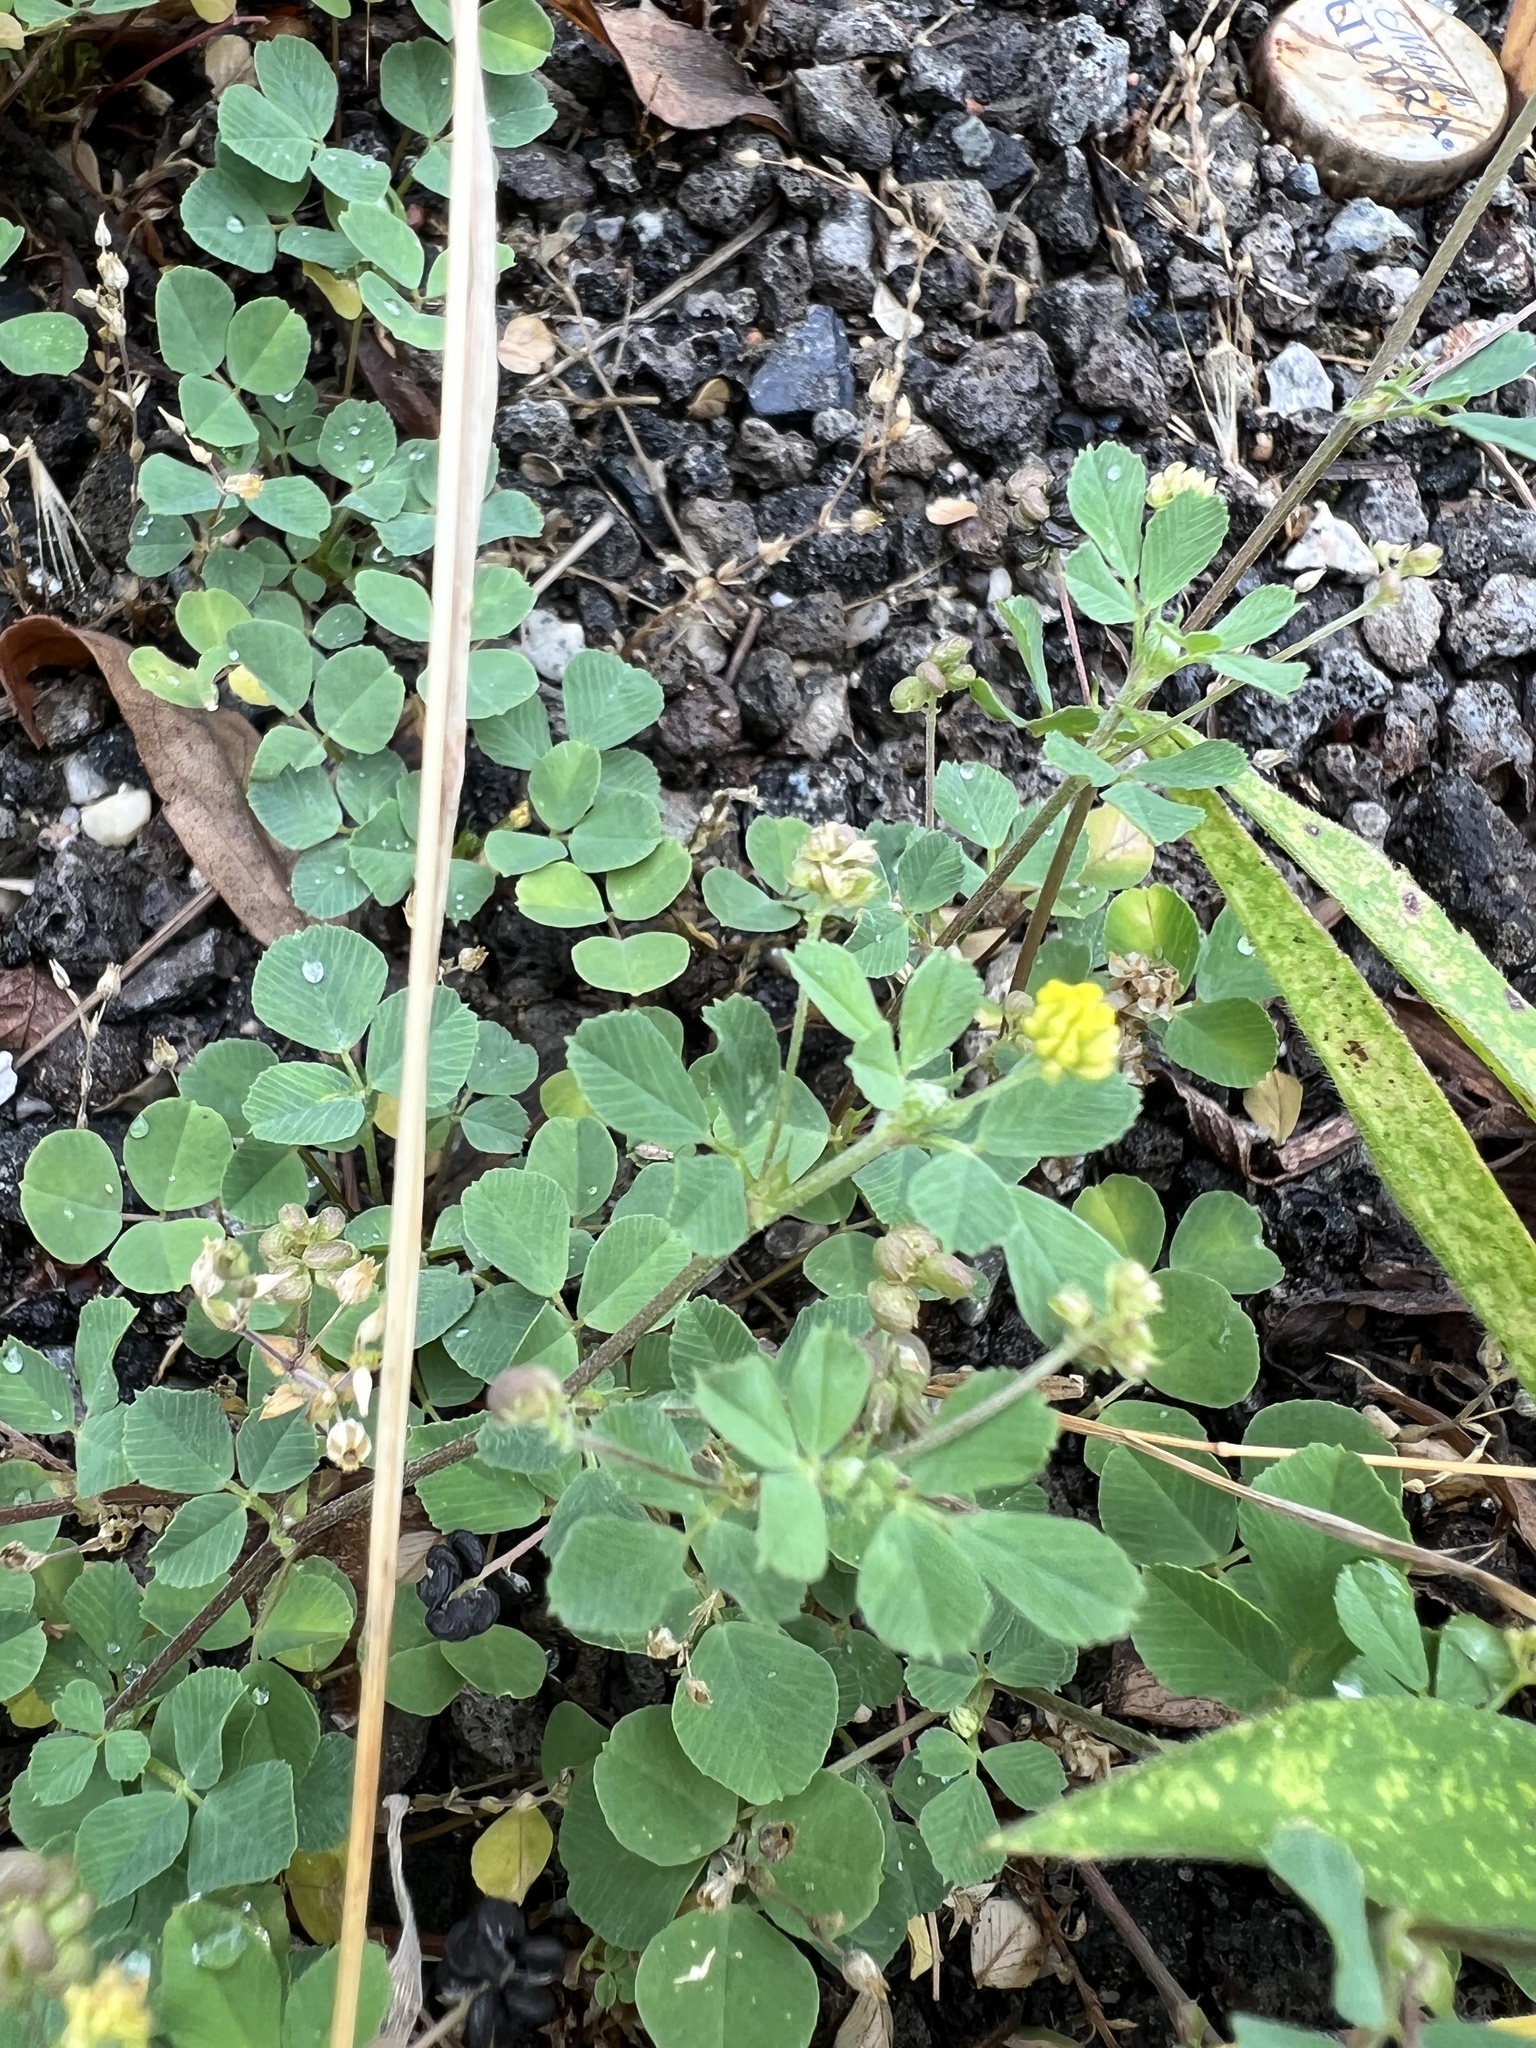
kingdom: Plantae
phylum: Tracheophyta
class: Magnoliopsida
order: Fabales
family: Fabaceae
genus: Medicago
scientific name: Medicago lupulina
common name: Black medick
